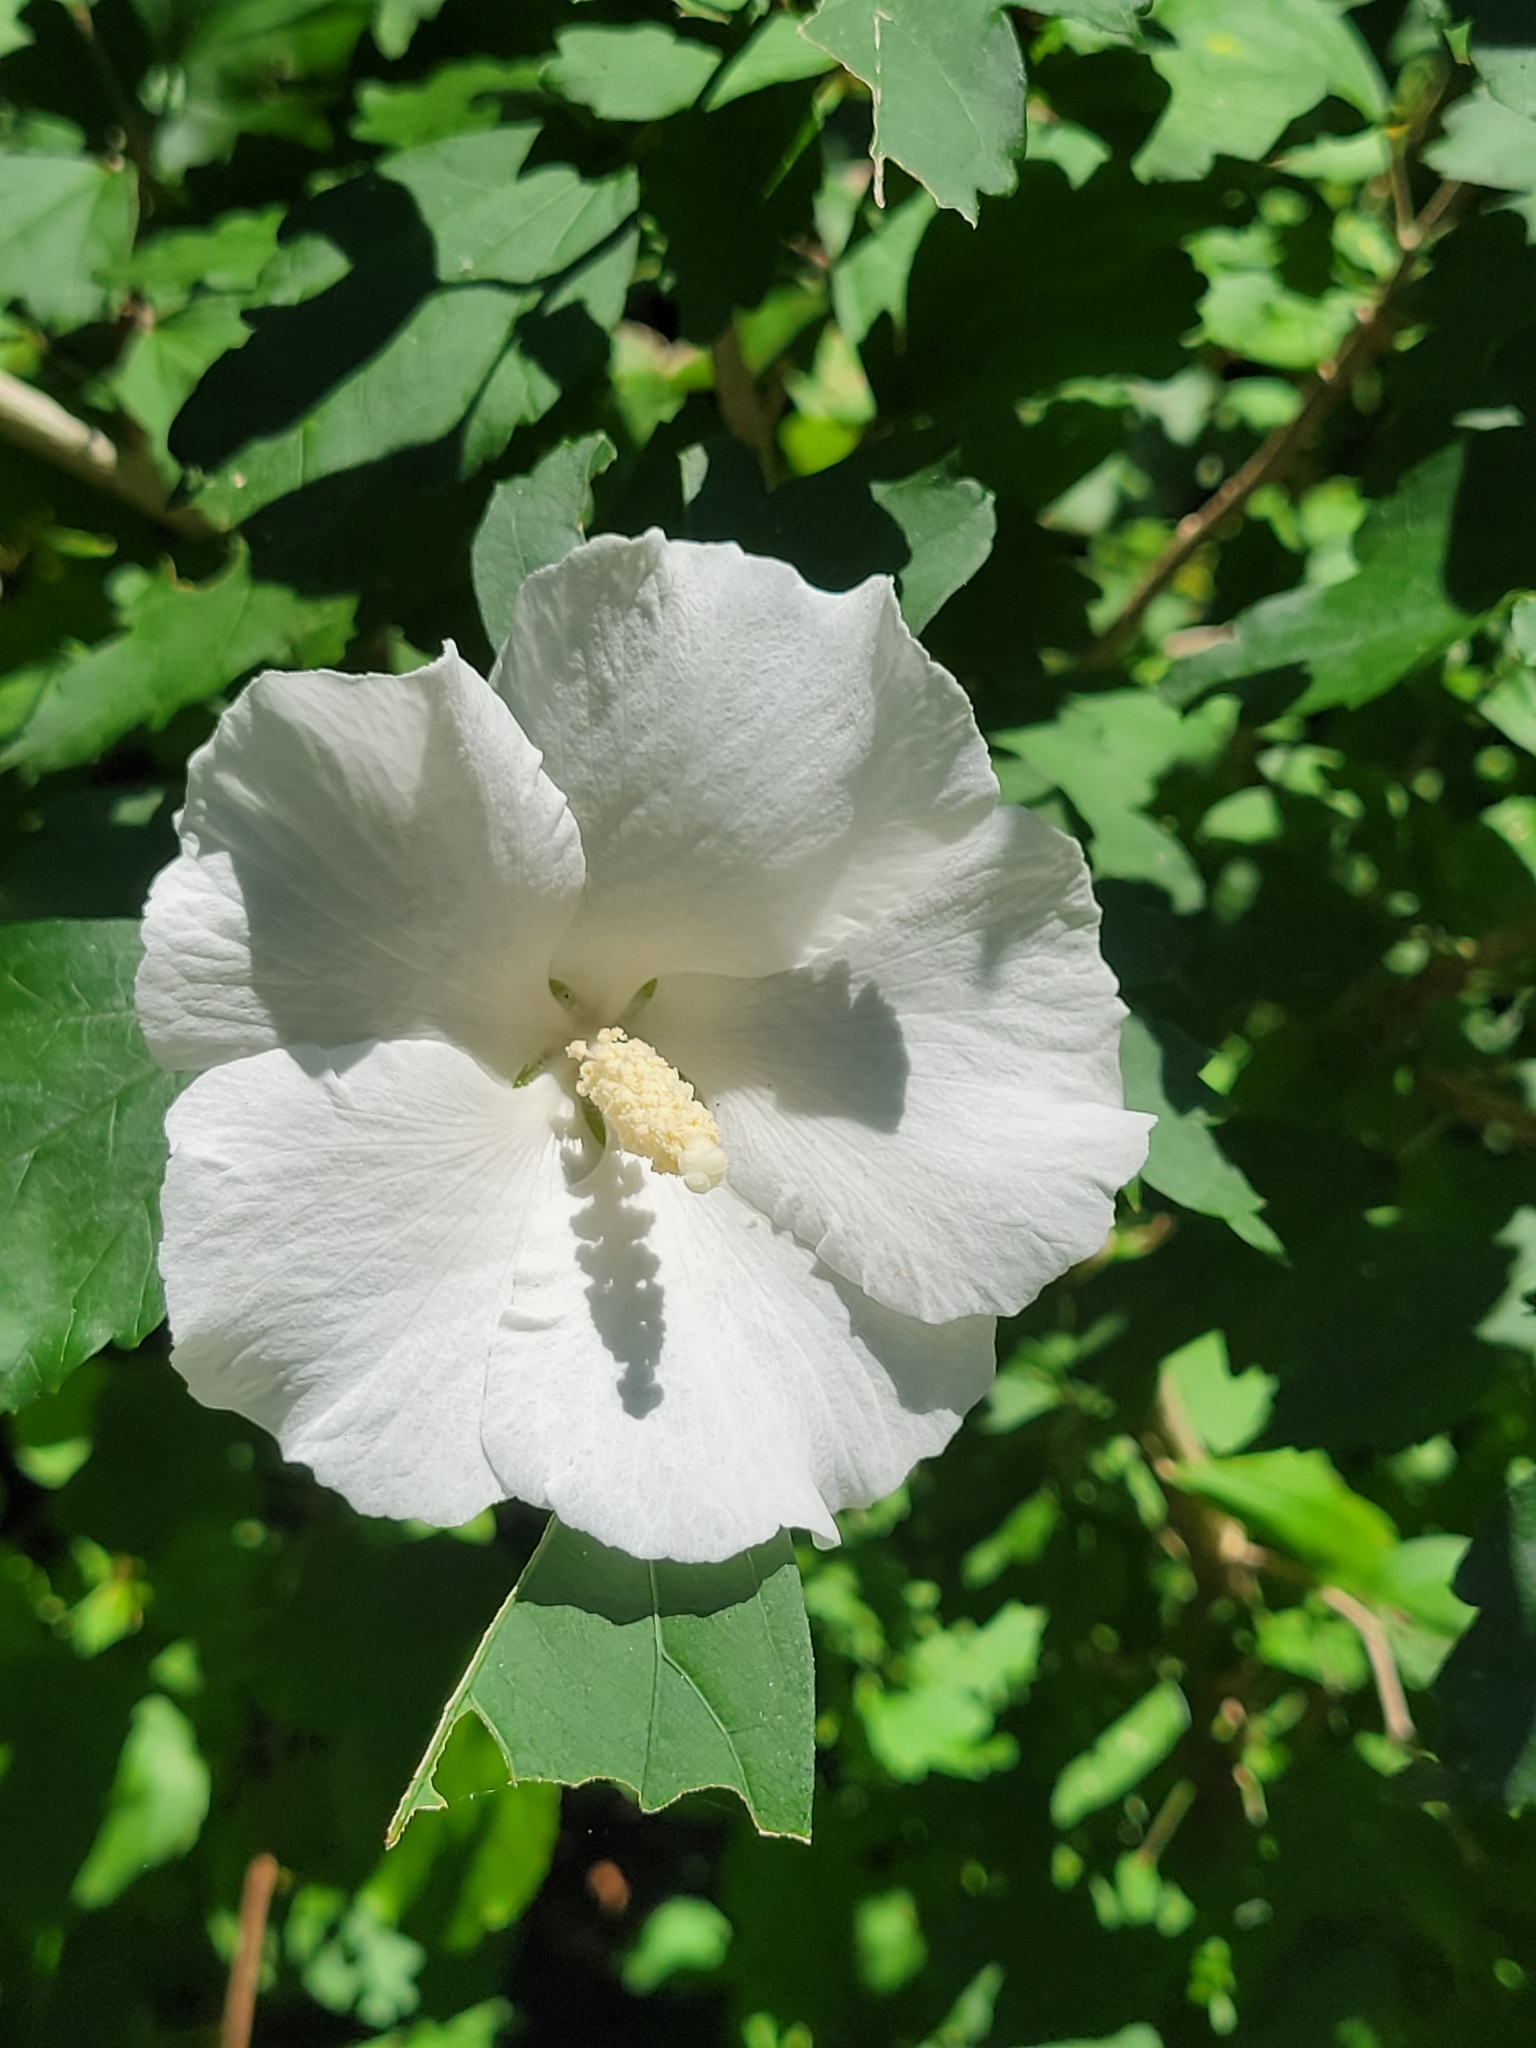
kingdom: Plantae
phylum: Tracheophyta
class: Magnoliopsida
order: Malvales
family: Malvaceae
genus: Hibiscus
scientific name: Hibiscus syriacus
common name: Syrian ketmia
